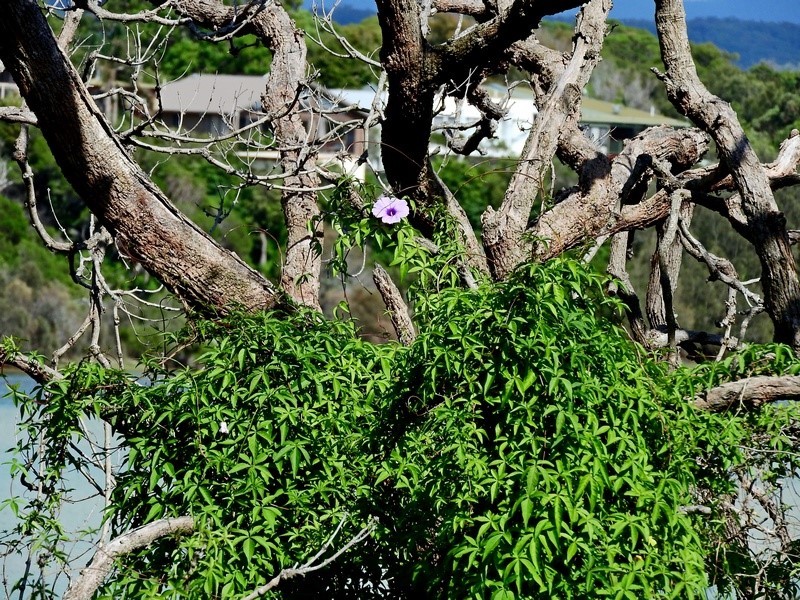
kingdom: Plantae
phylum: Tracheophyta
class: Magnoliopsida
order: Solanales
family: Convolvulaceae
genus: Ipomoea
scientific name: Ipomoea cairica
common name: Mile a minute vine
